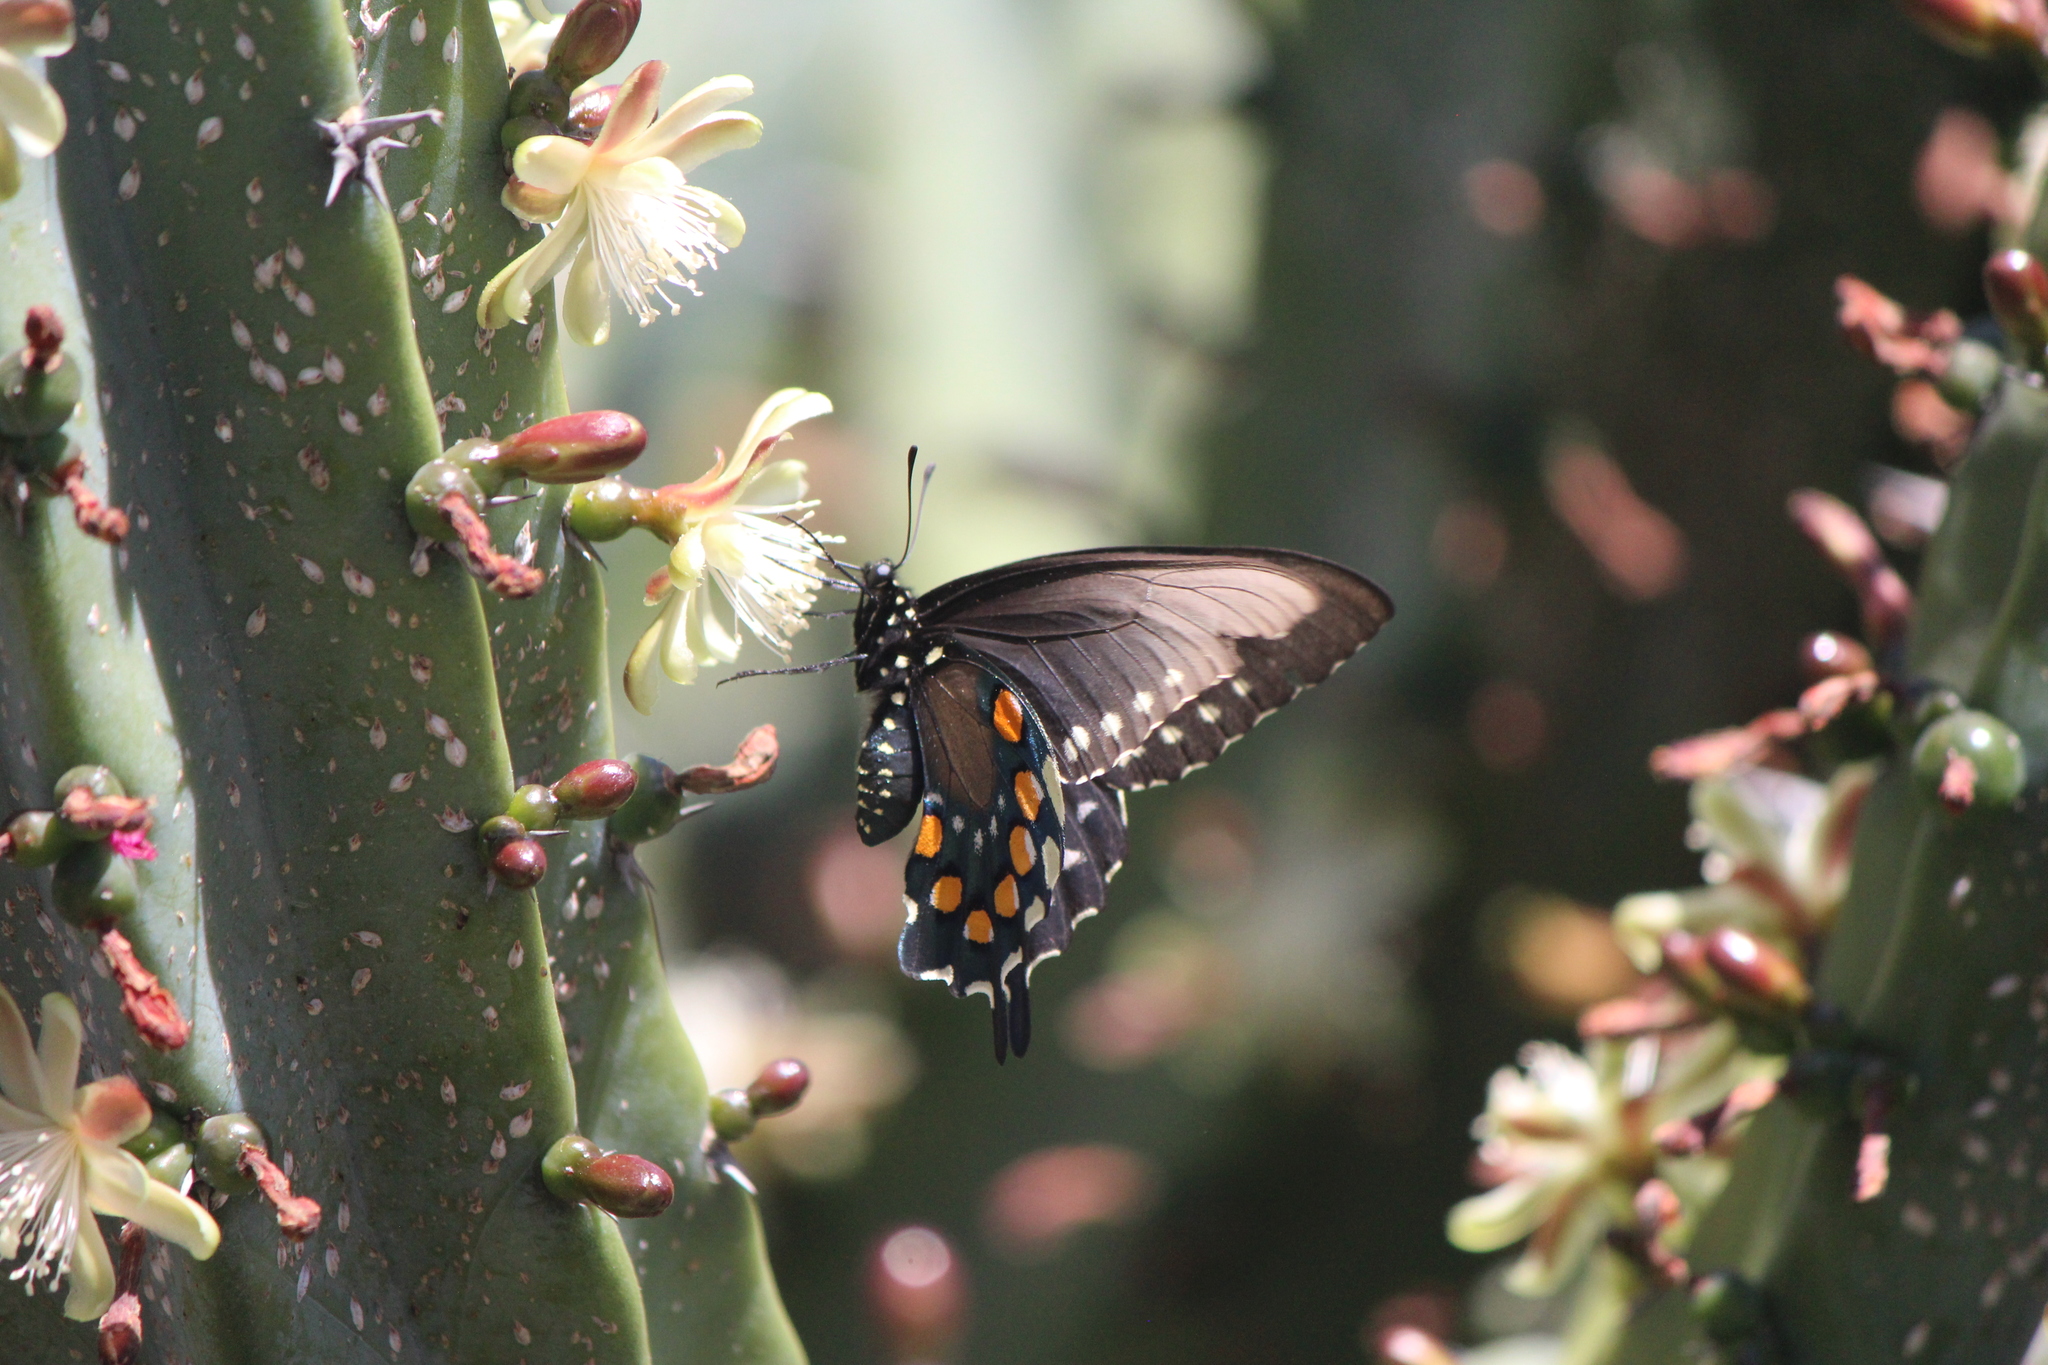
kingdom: Animalia
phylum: Arthropoda
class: Insecta
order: Lepidoptera
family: Papilionidae
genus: Battus
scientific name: Battus philenor
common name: Pipevine swallowtail
